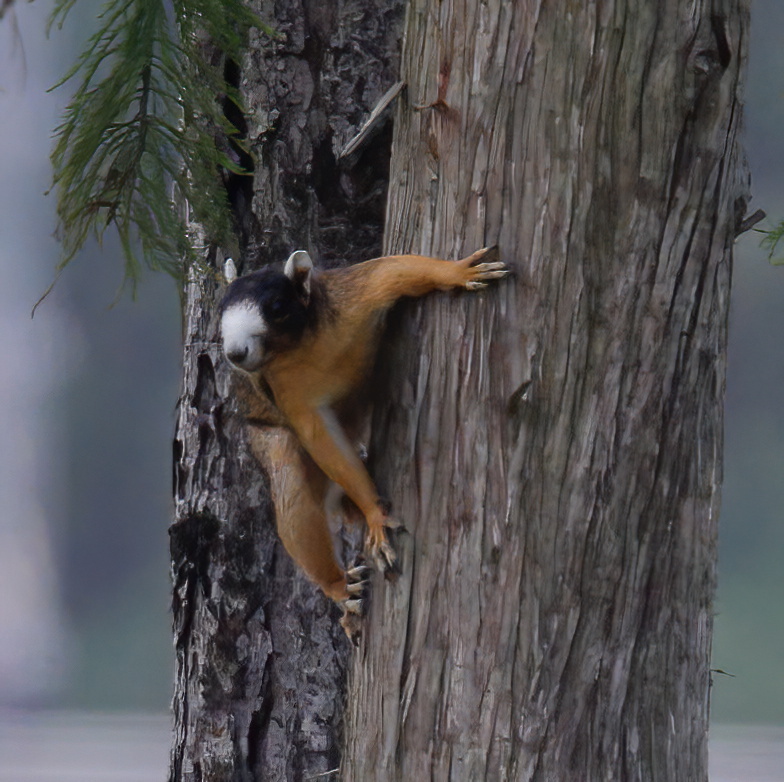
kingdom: Animalia
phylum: Chordata
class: Mammalia
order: Rodentia
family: Sciuridae
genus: Sciurus
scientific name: Sciurus niger
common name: Fox squirrel
